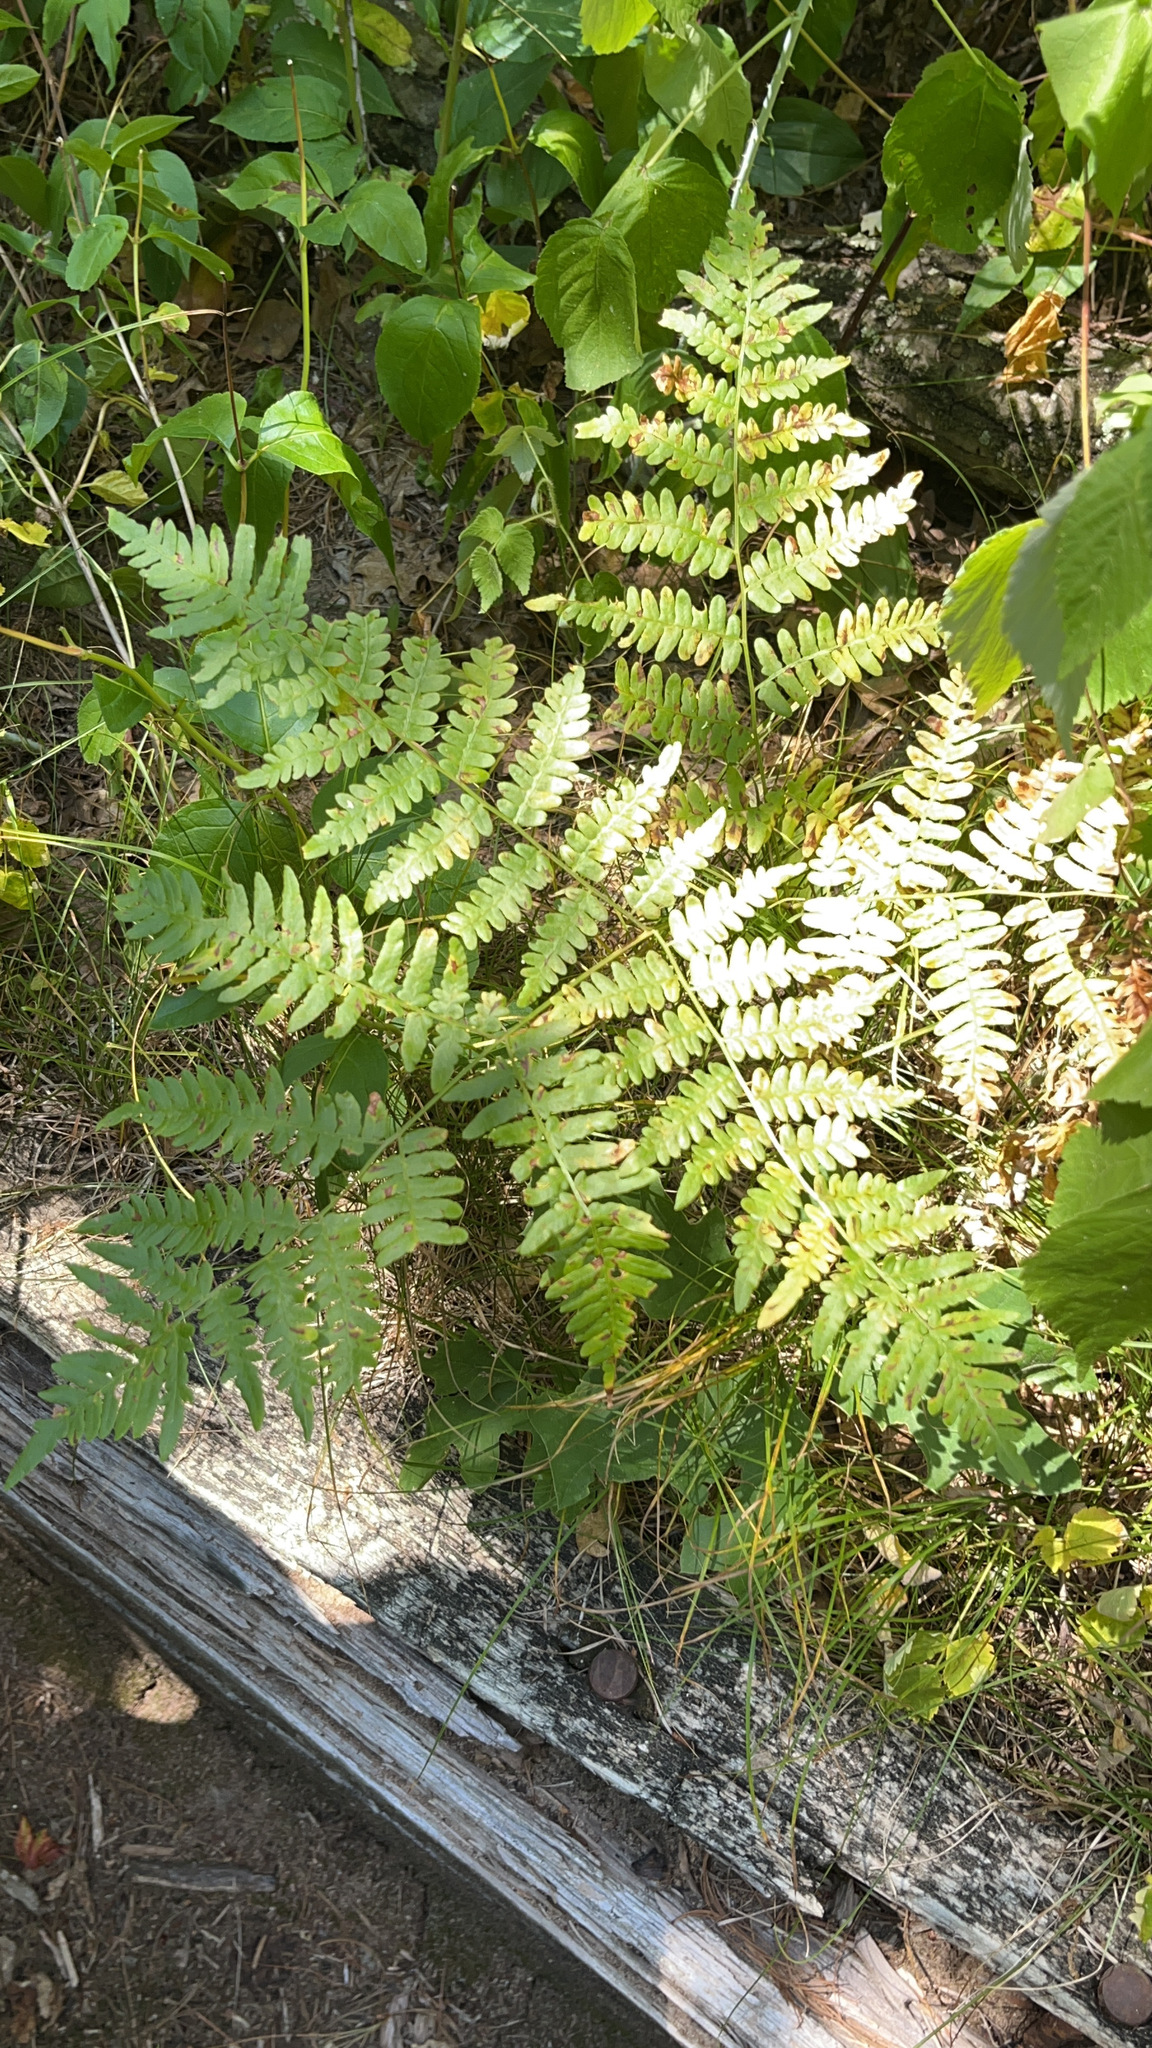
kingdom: Plantae
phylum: Tracheophyta
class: Polypodiopsida
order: Polypodiales
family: Dennstaedtiaceae
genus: Pteridium
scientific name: Pteridium aquilinum
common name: Bracken
